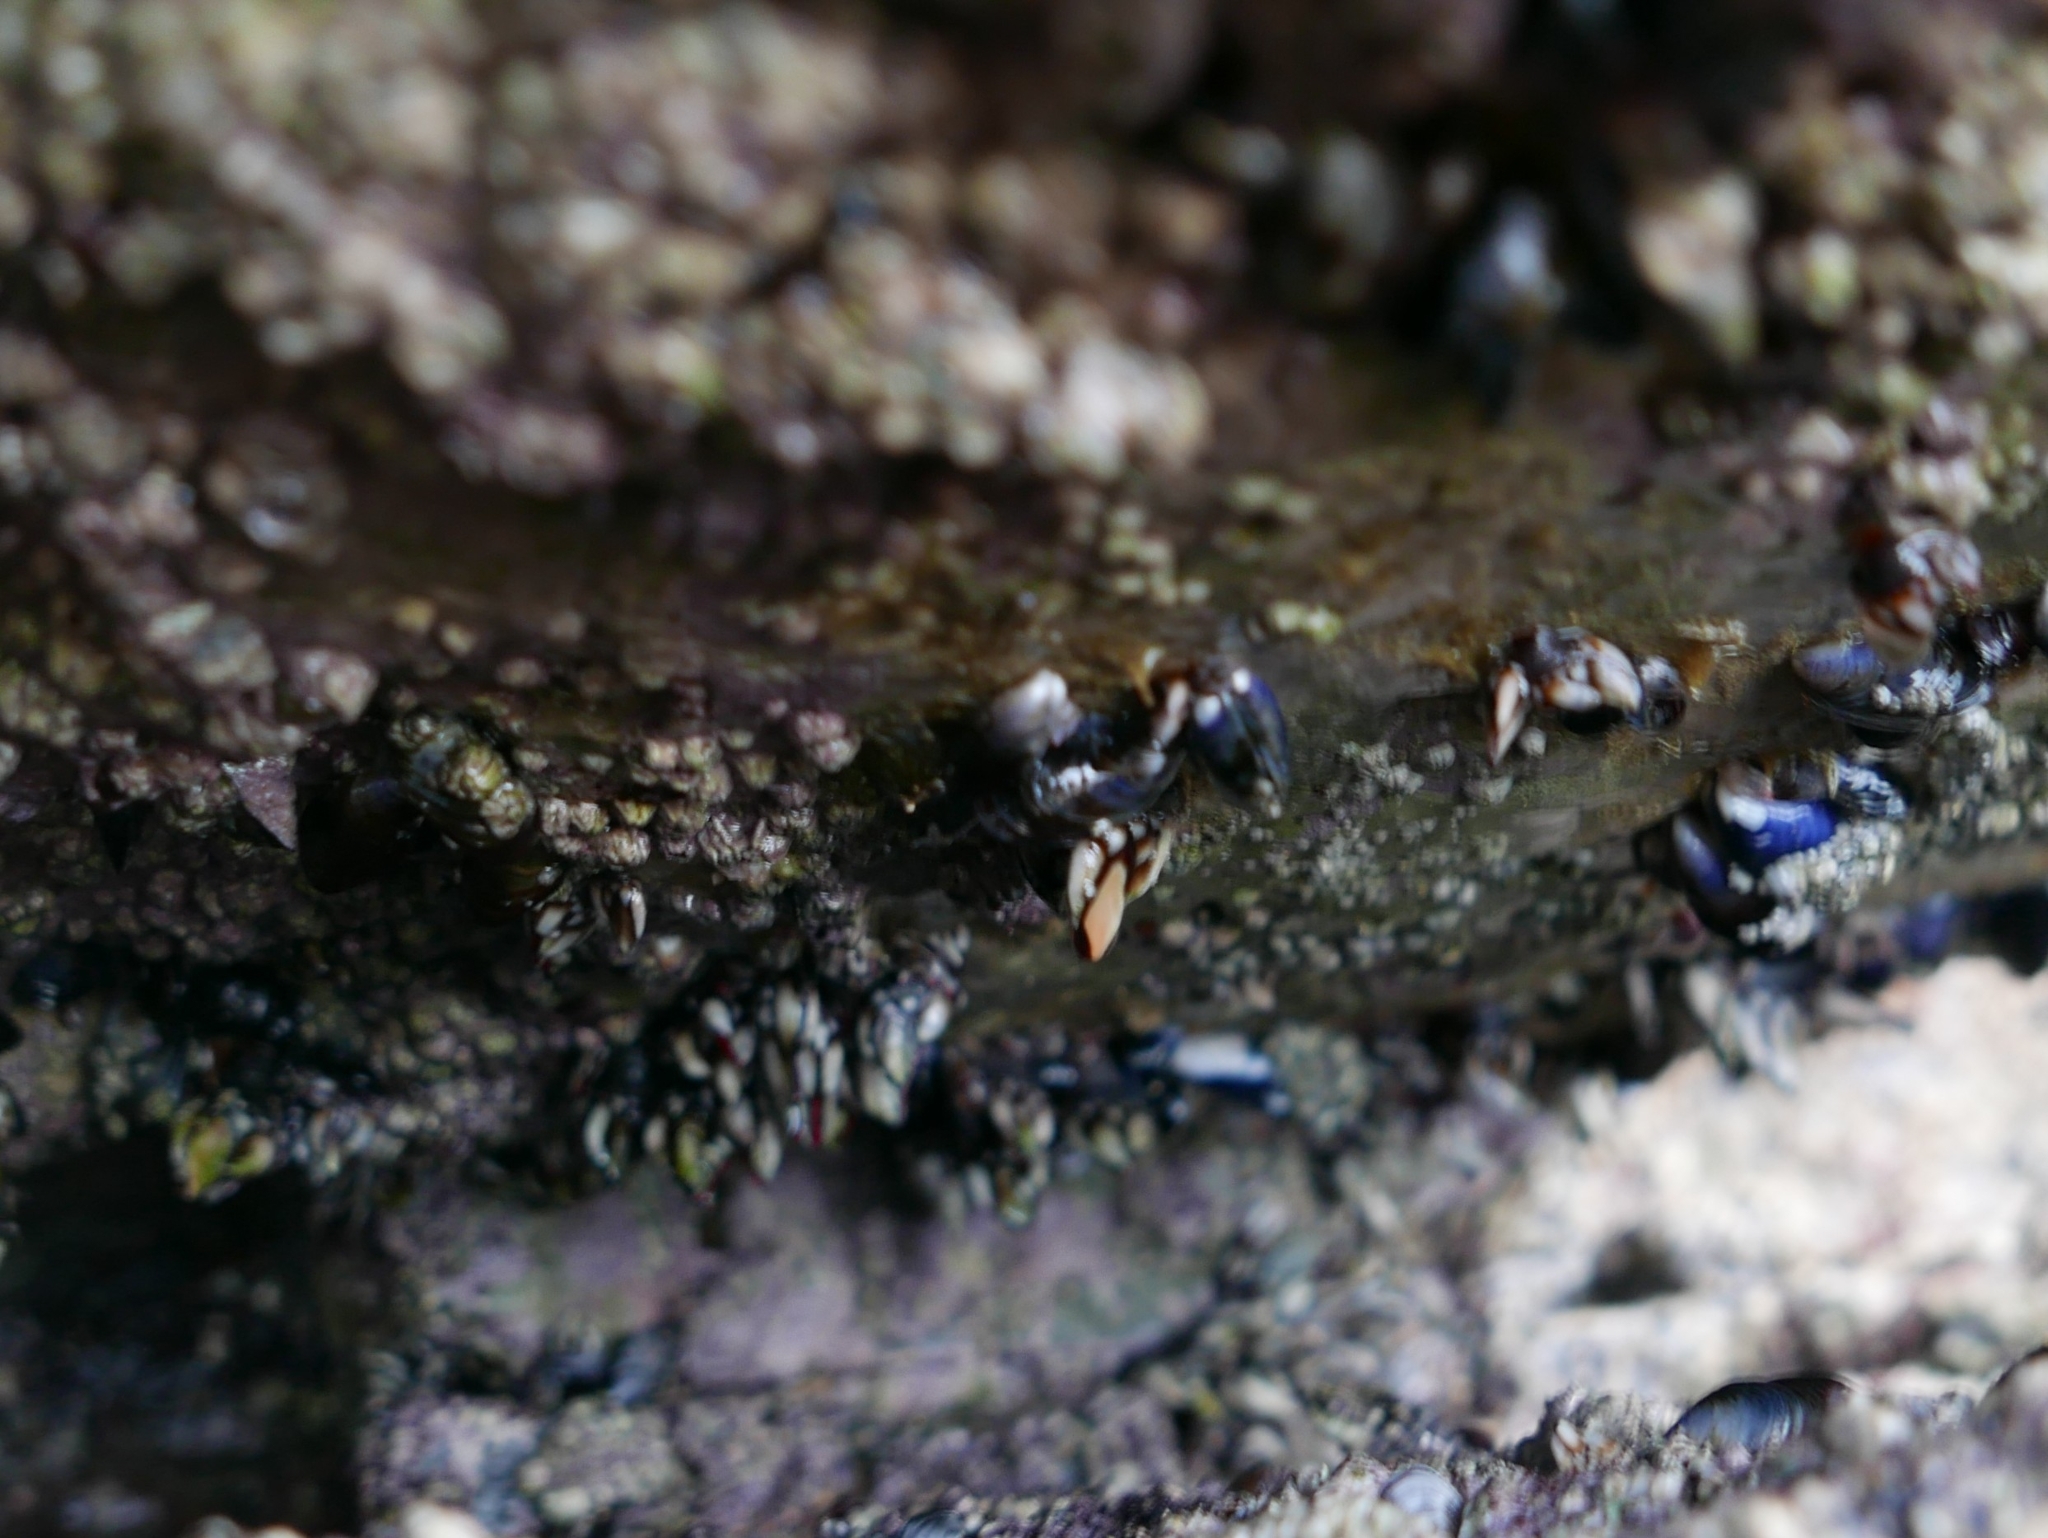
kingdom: Animalia
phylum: Arthropoda
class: Maxillopoda
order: Pedunculata
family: Pollicipedidae
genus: Pollicipes
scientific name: Pollicipes pollicipes
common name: Gooseneck barnacle
